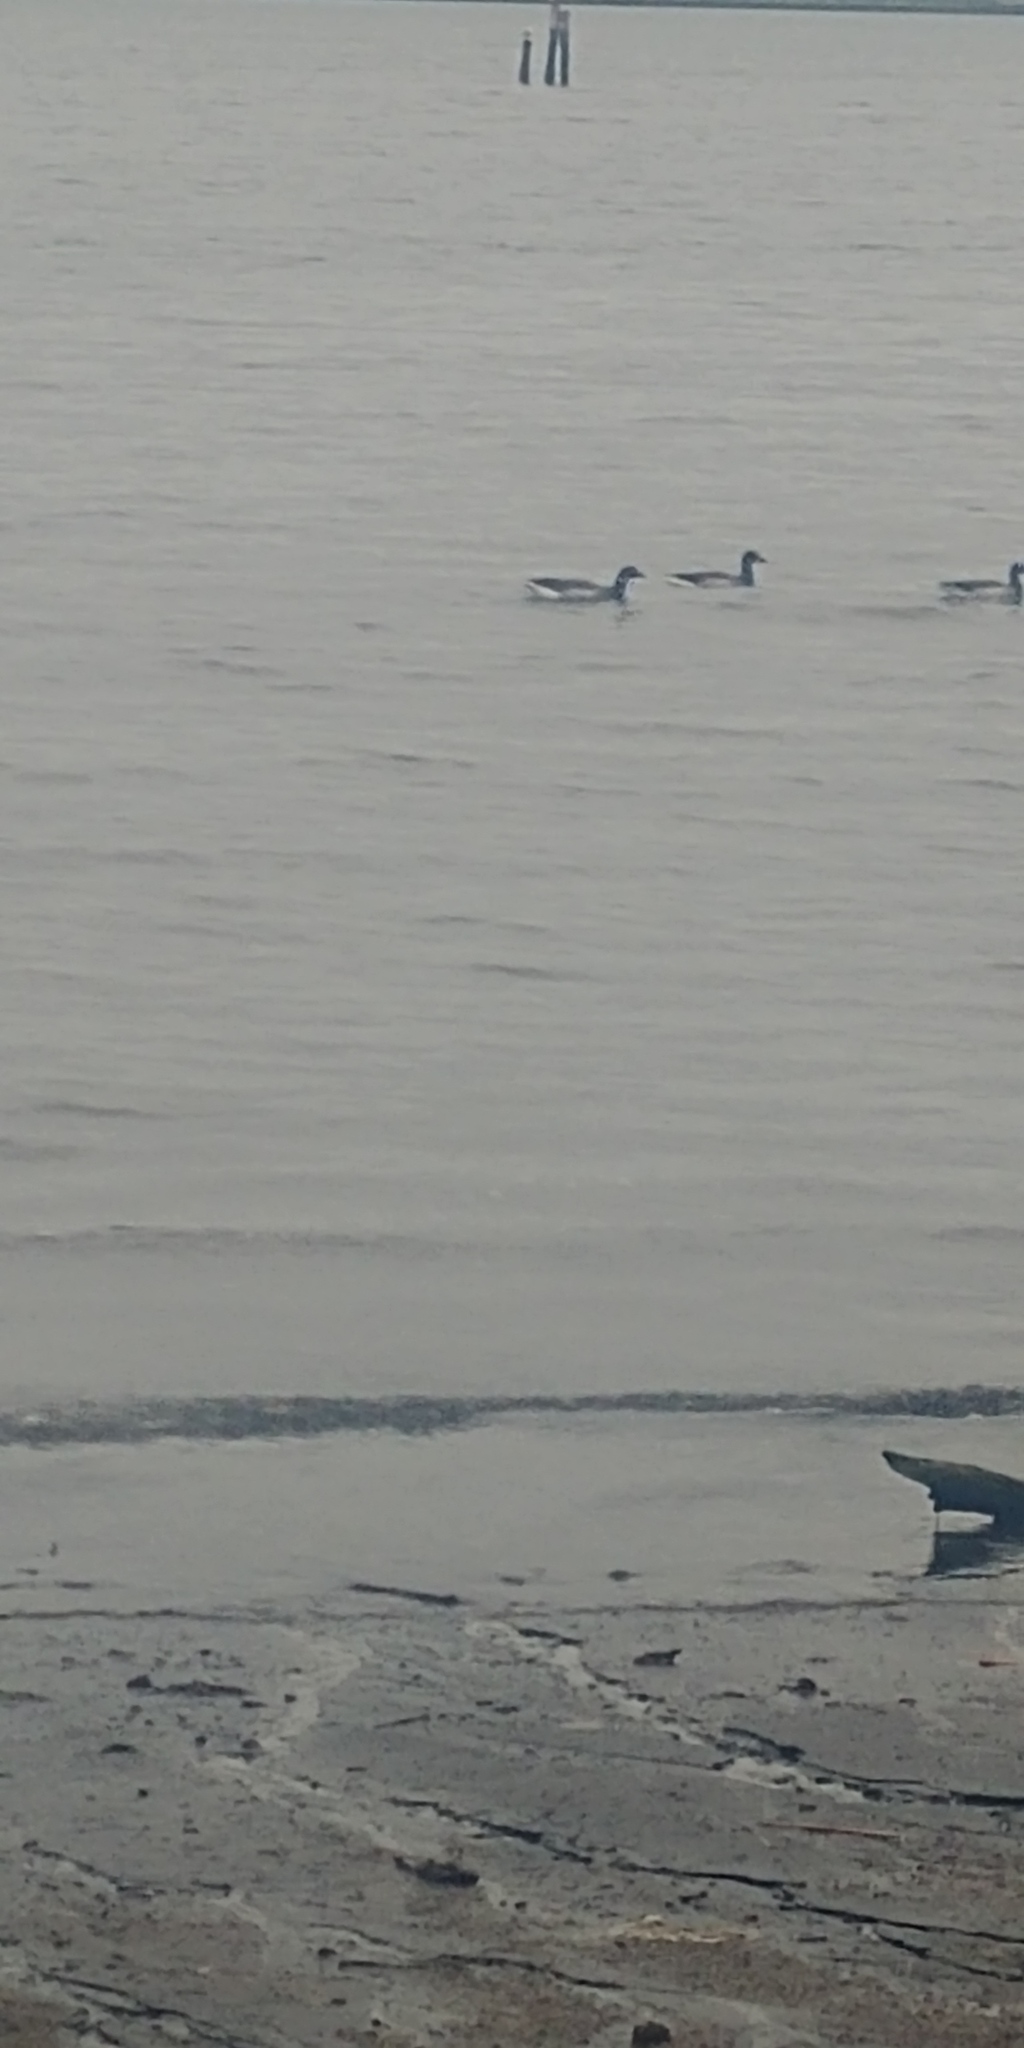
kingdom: Animalia
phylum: Chordata
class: Aves
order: Anseriformes
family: Anatidae
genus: Branta
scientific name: Branta bernicla
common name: Brant goose
